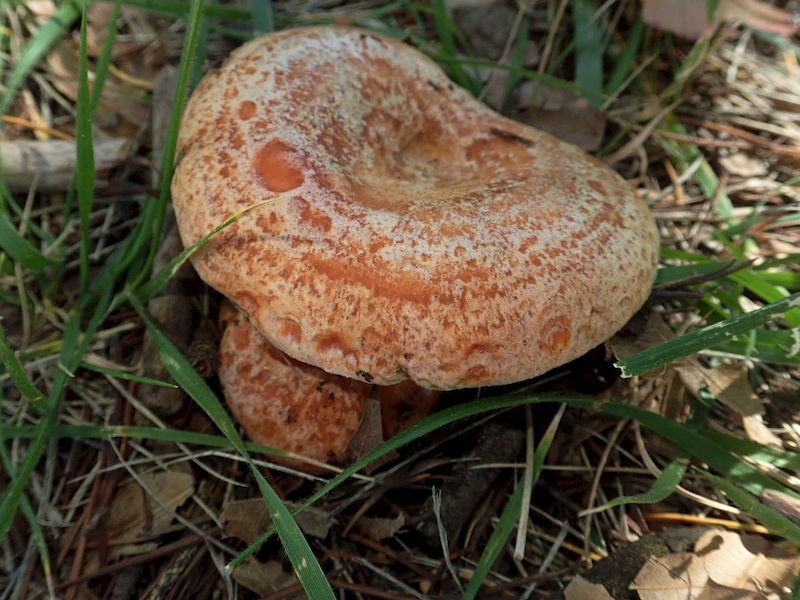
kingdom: Fungi
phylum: Basidiomycota
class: Agaricomycetes
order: Russulales
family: Russulaceae
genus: Lactarius
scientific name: Lactarius deliciosus
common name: Saffron milk-cap
